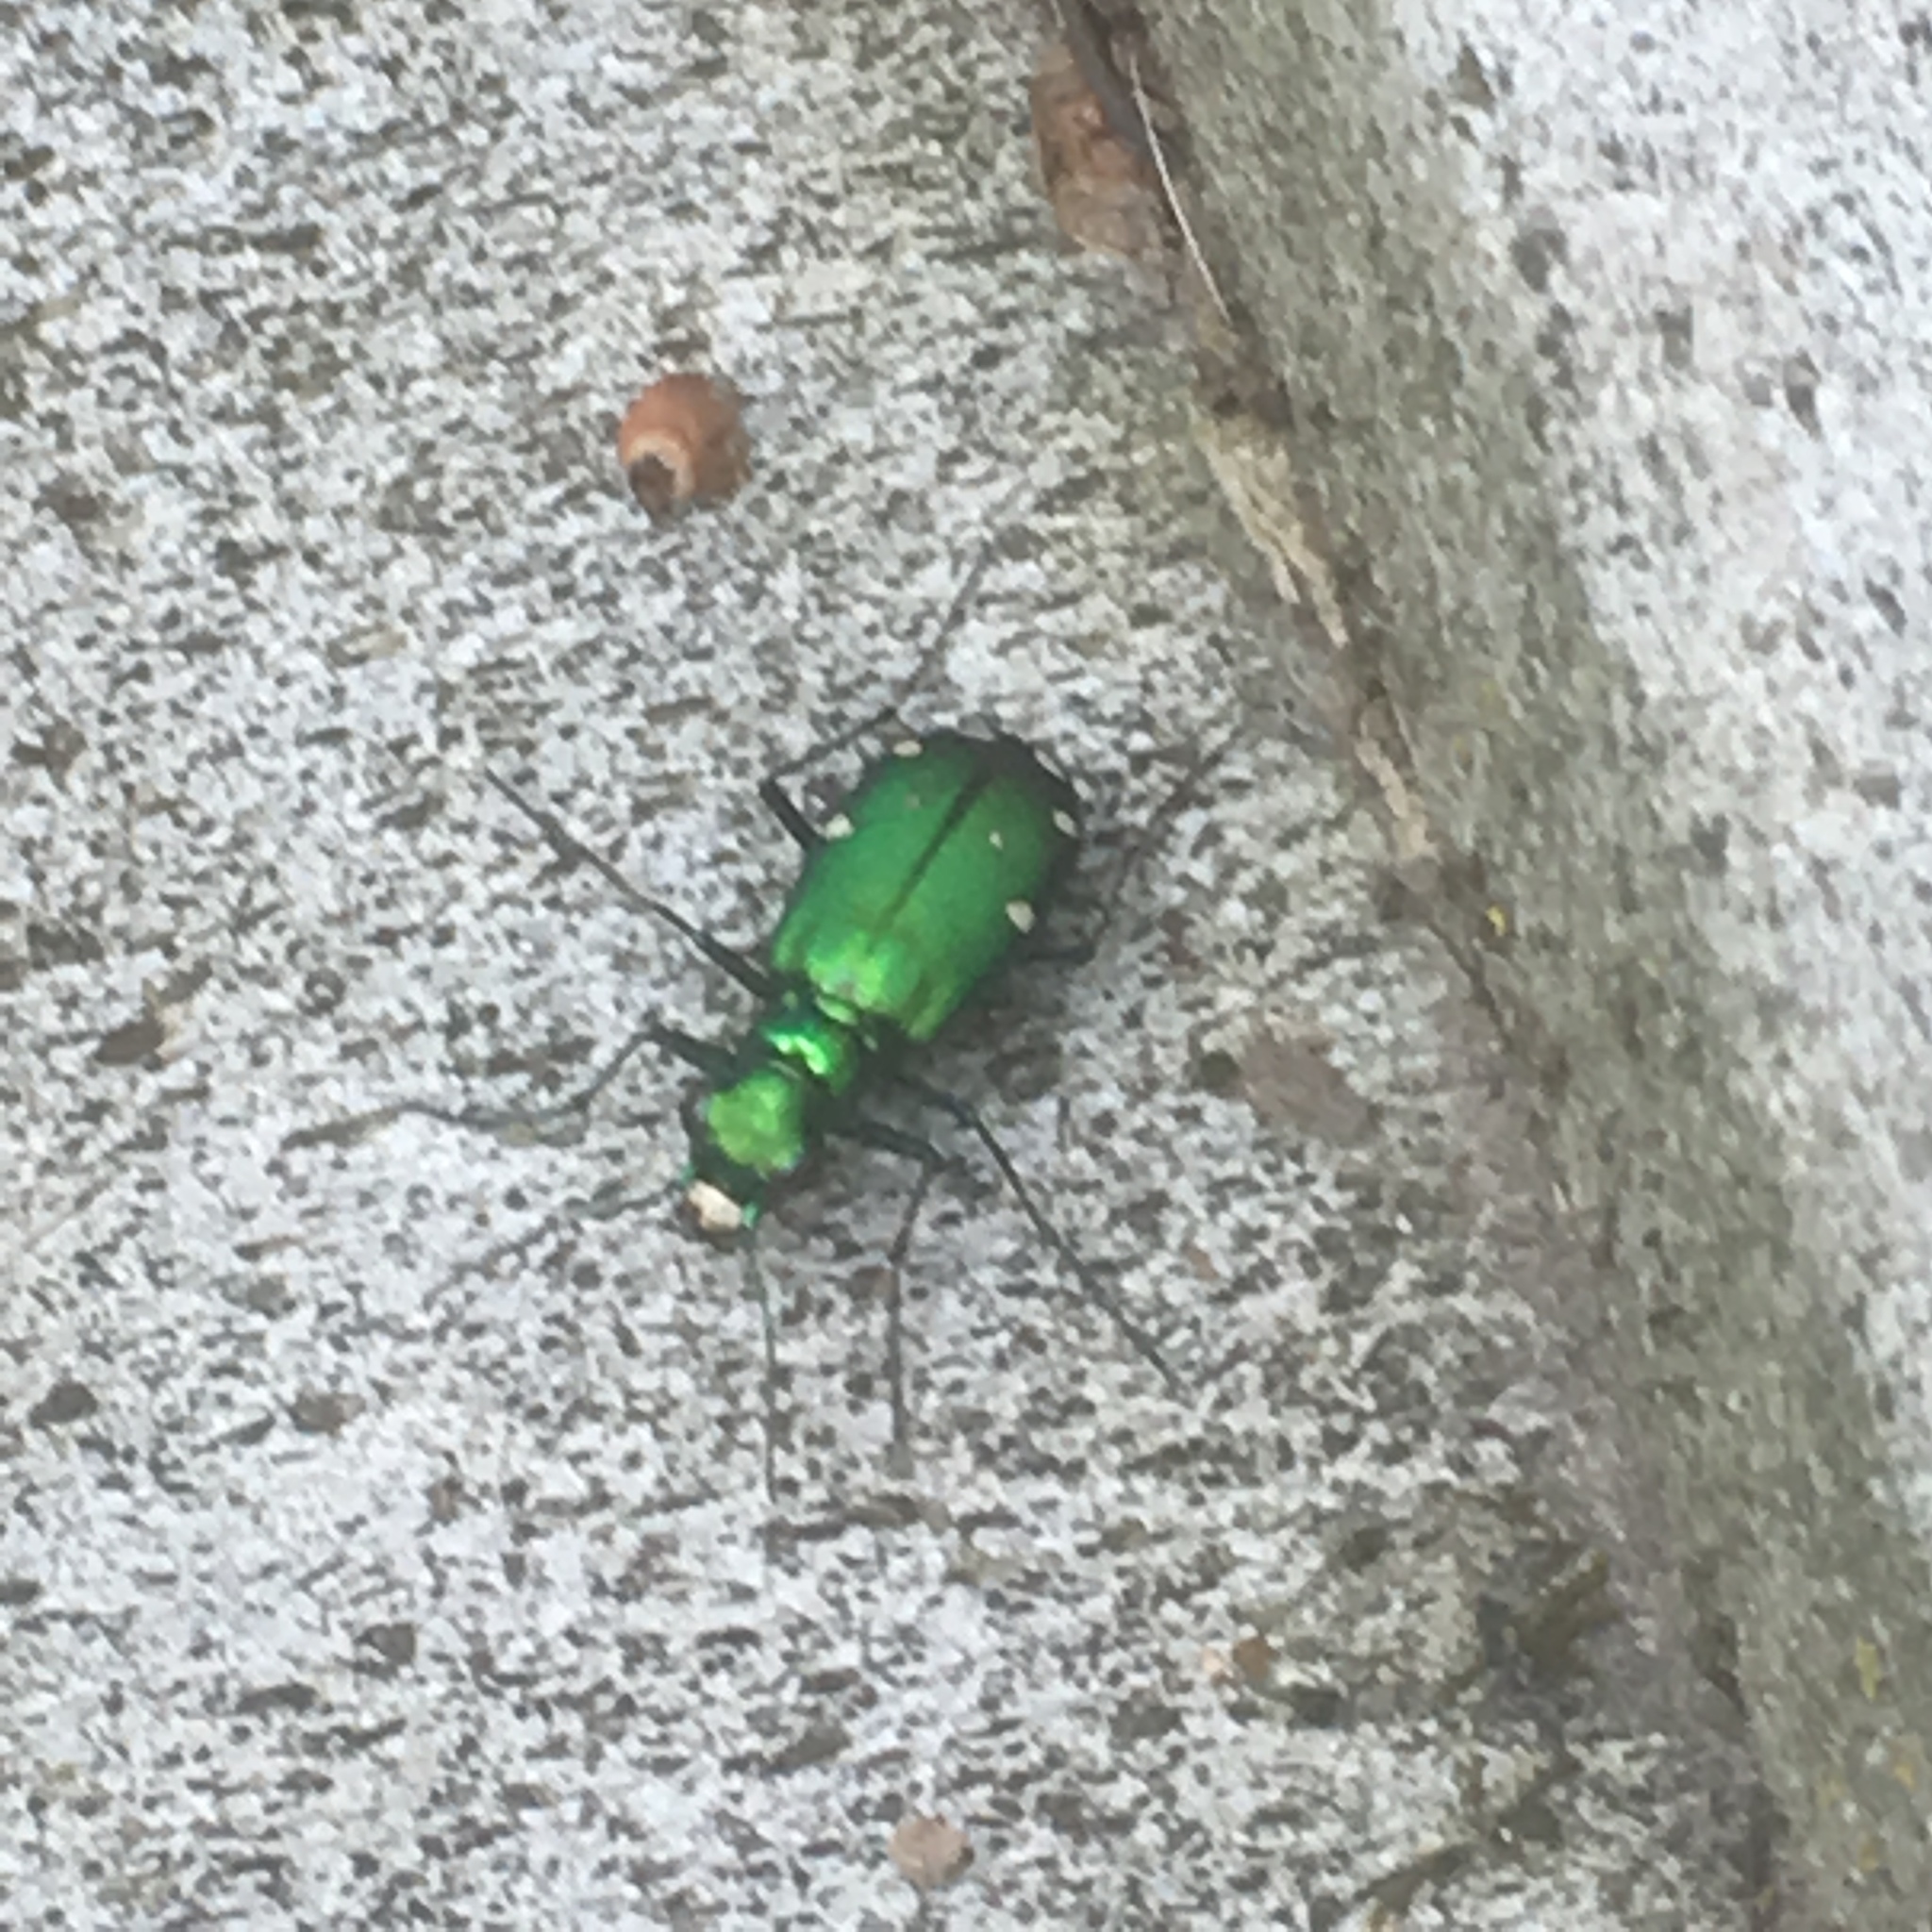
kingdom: Animalia
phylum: Arthropoda
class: Insecta
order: Coleoptera
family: Carabidae
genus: Cicindela
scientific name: Cicindela sexguttata
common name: Six-spotted tiger beetle
